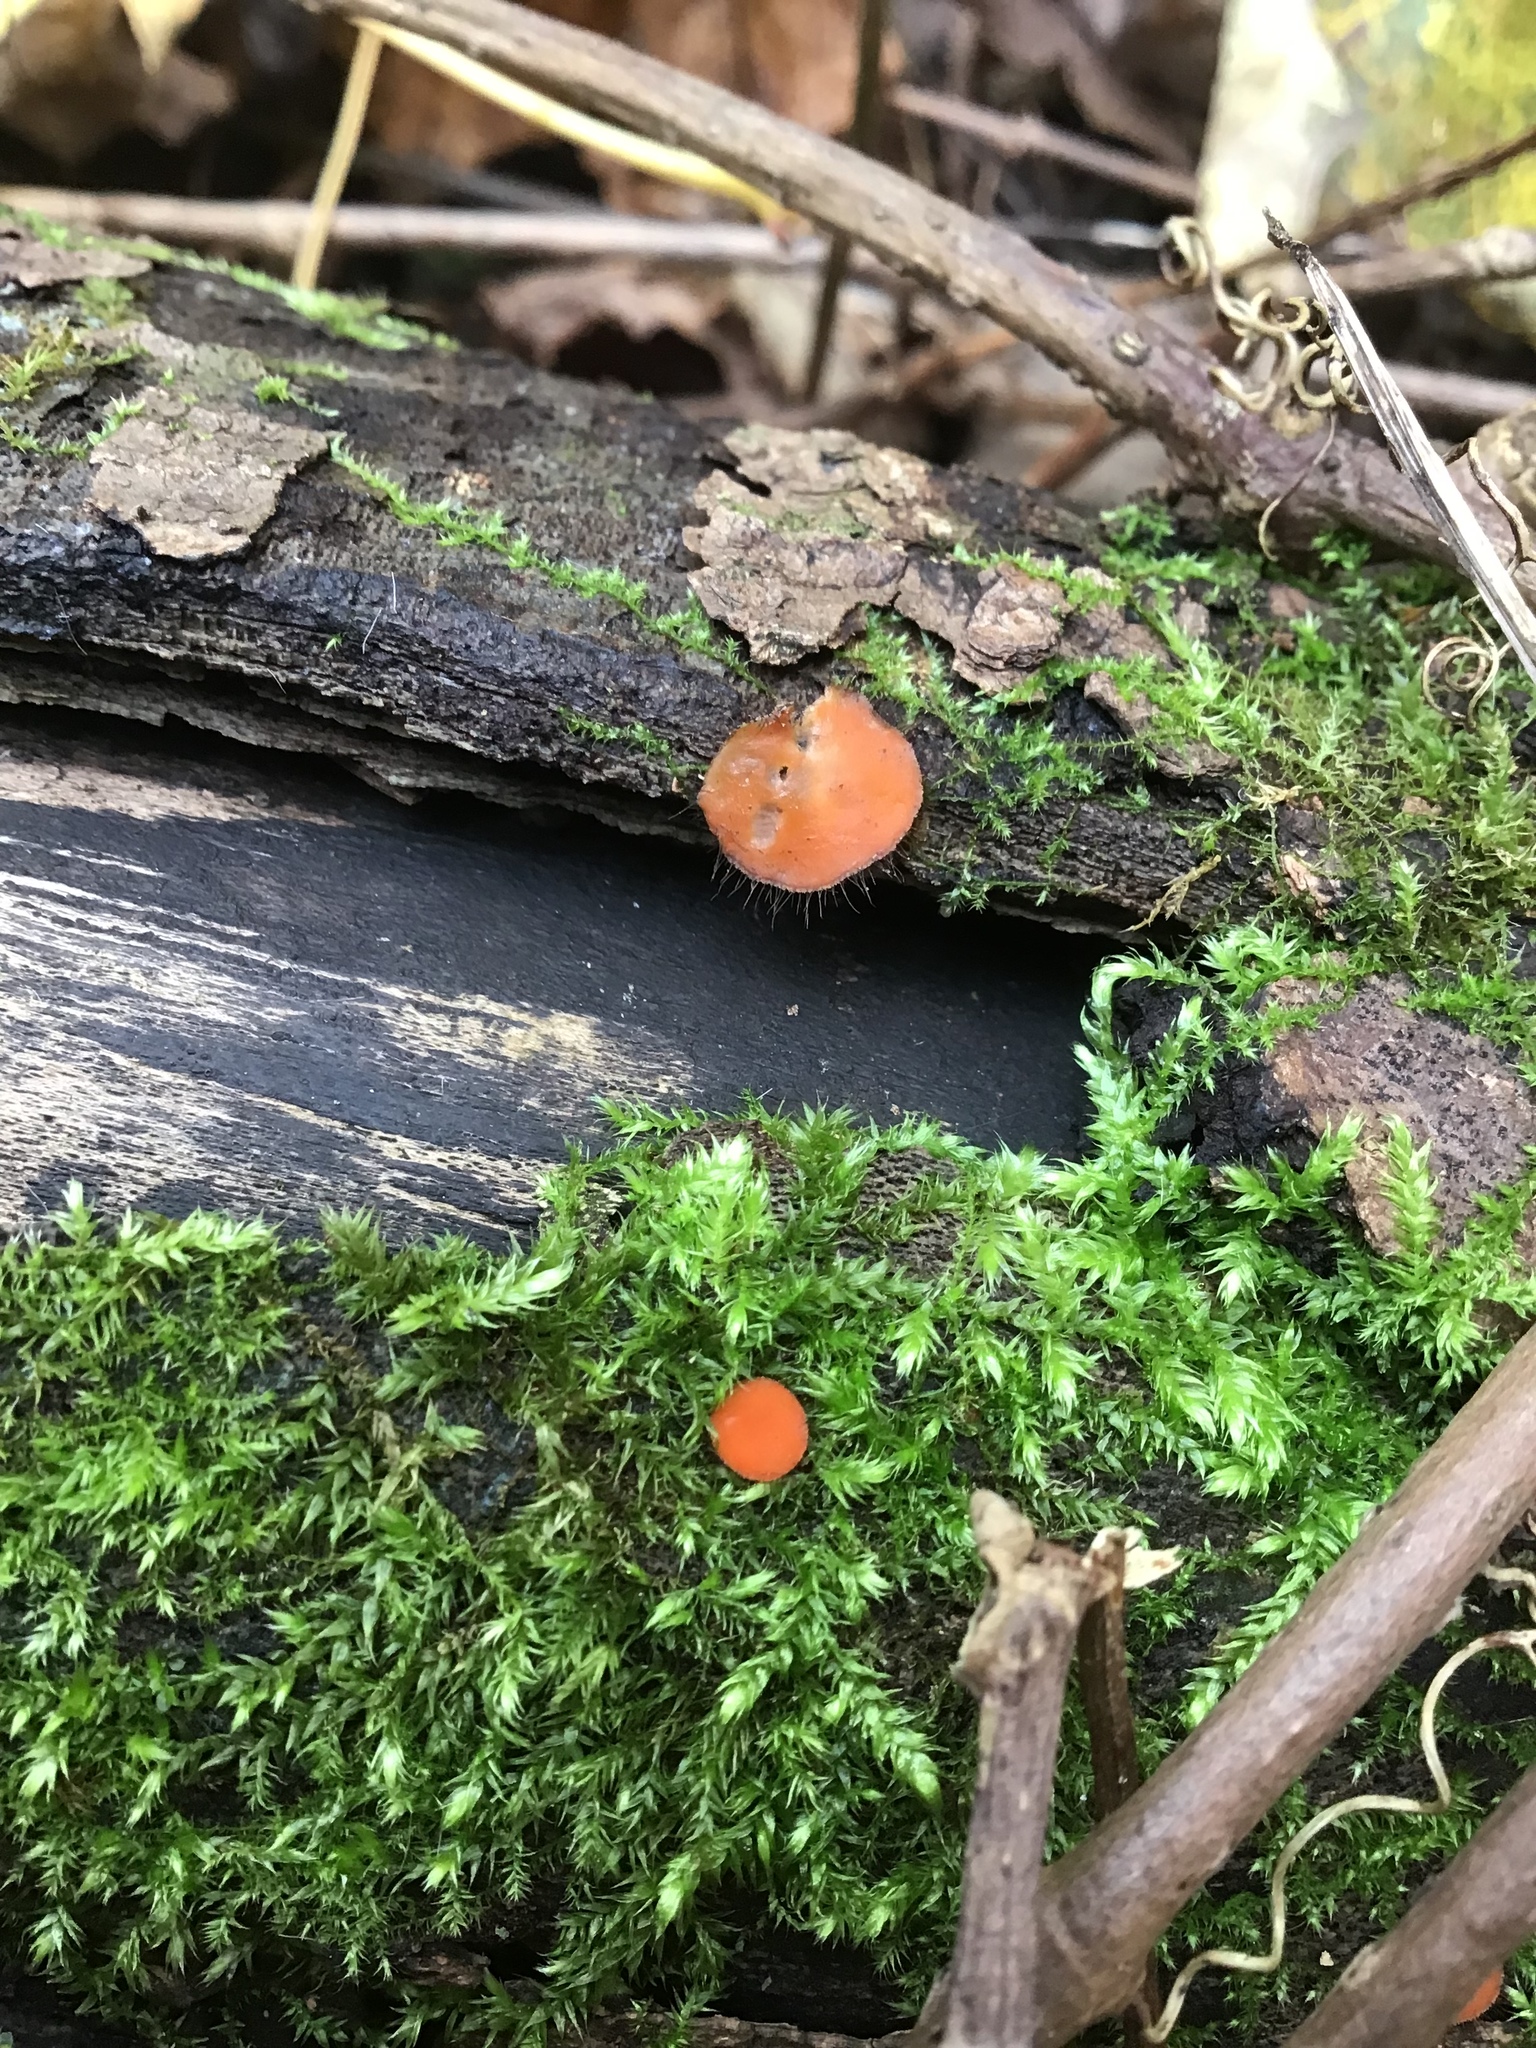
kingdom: Fungi
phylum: Ascomycota
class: Pezizomycetes
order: Pezizales
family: Pyronemataceae
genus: Scutellinia
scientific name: Scutellinia
